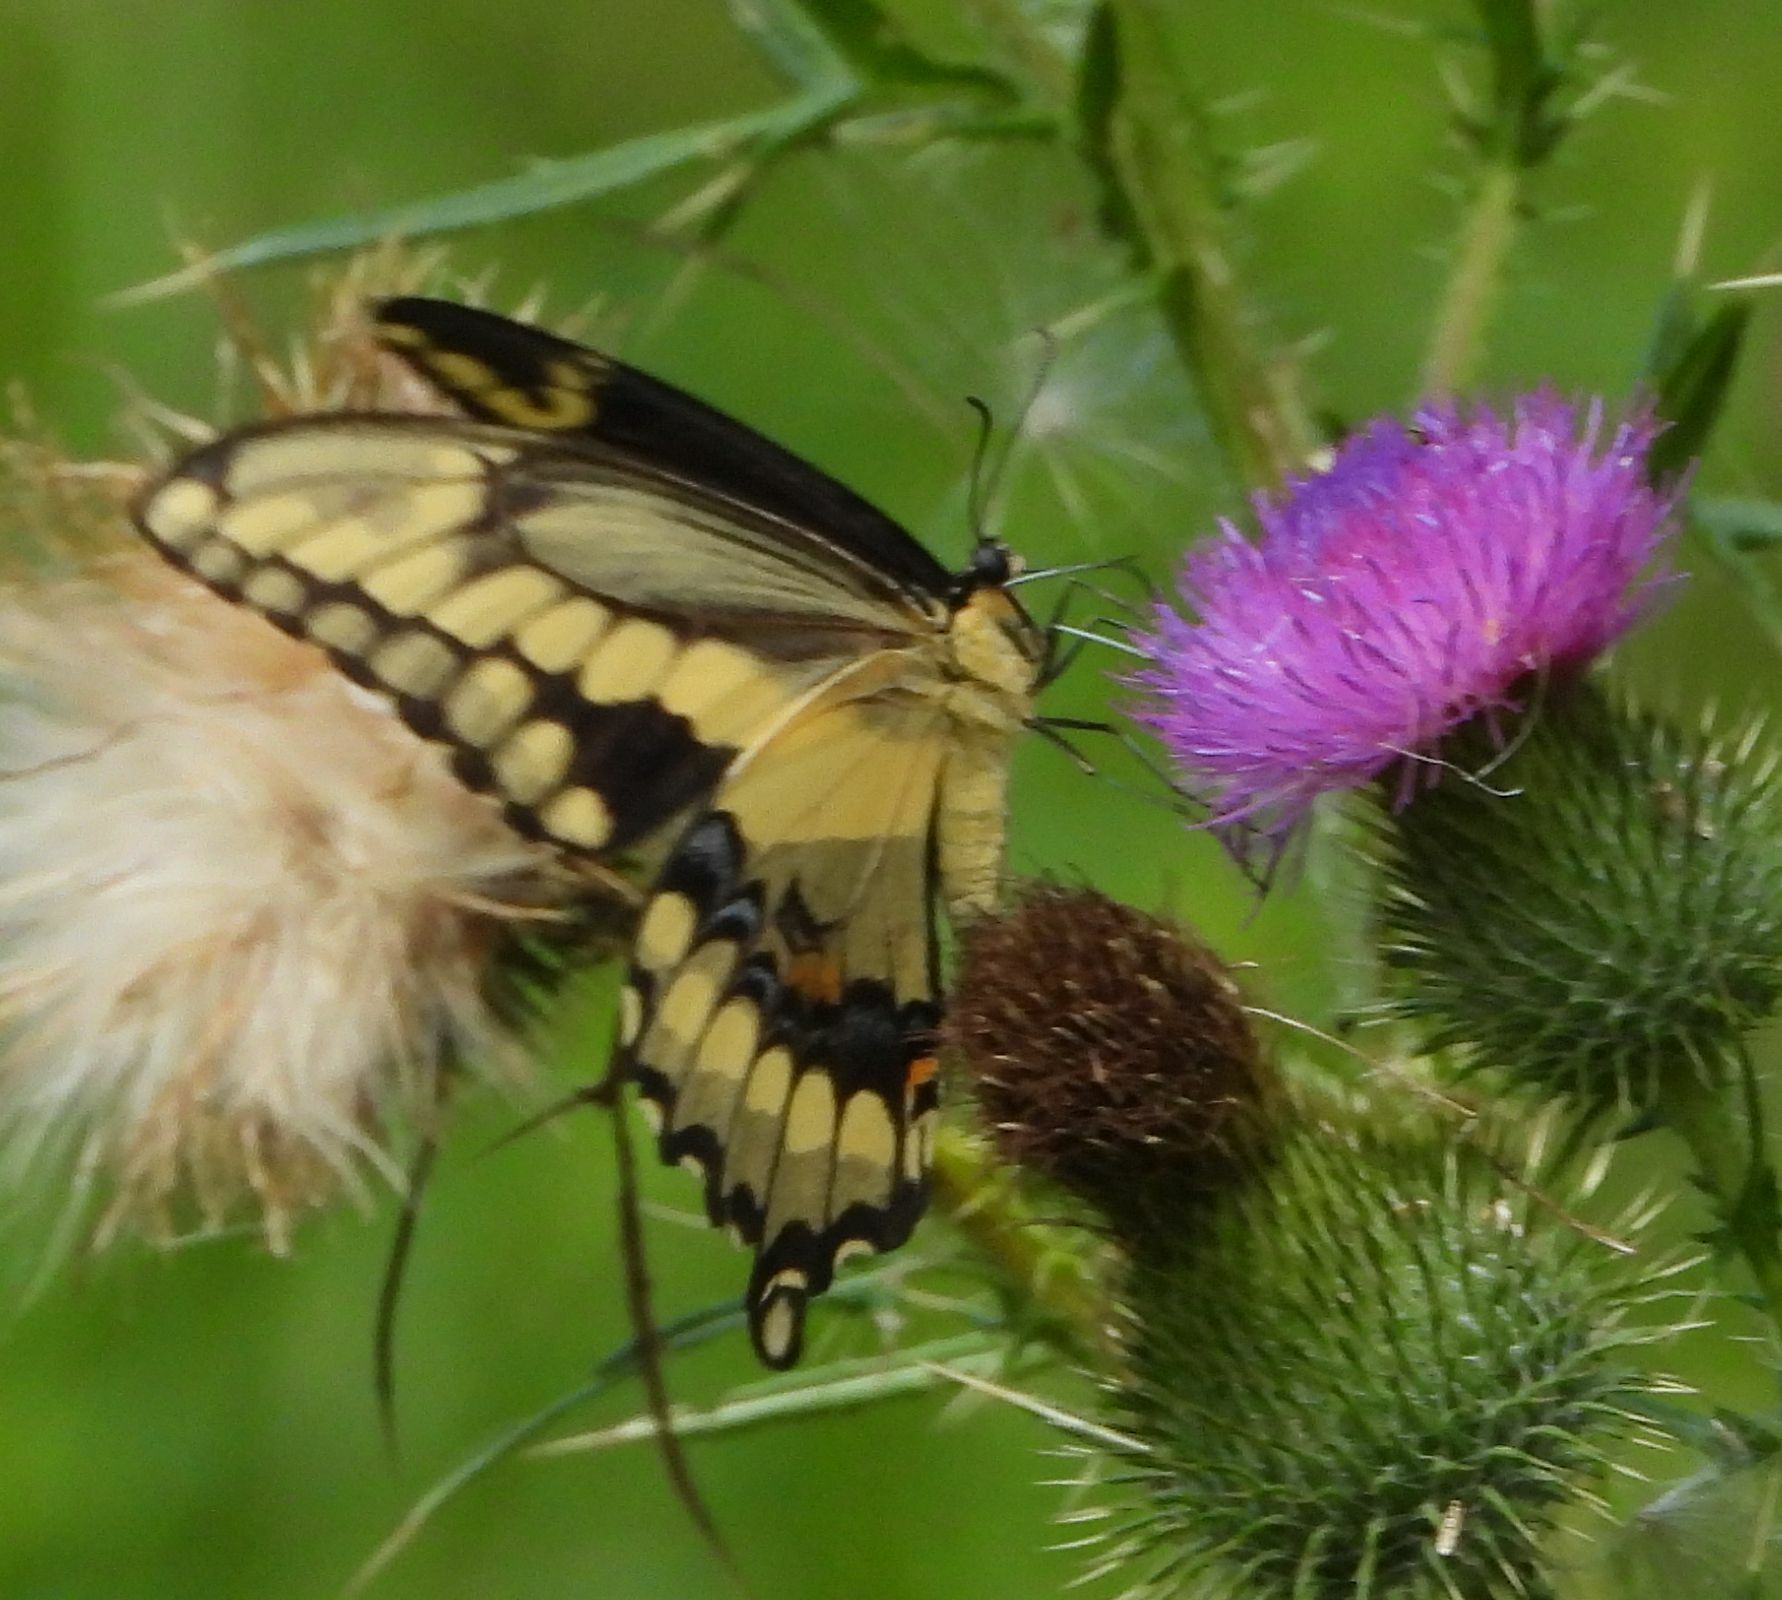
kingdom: Animalia
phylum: Arthropoda
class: Insecta
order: Lepidoptera
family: Papilionidae
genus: Papilio
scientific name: Papilio cresphontes
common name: Giant swallowtail
